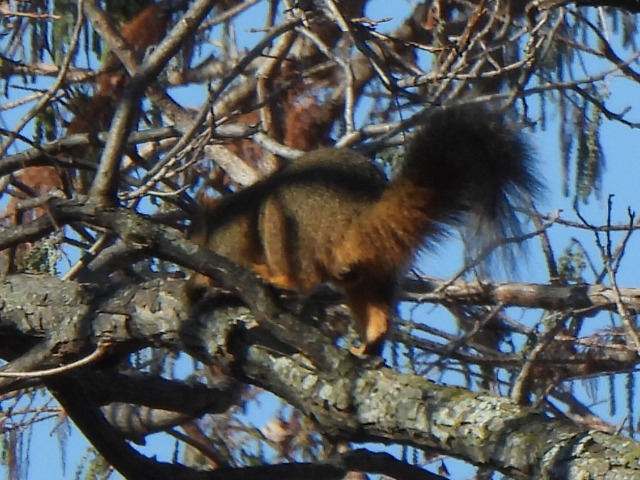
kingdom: Animalia
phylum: Chordata
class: Mammalia
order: Rodentia
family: Sciuridae
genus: Sciurus
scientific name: Sciurus niger
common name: Fox squirrel
